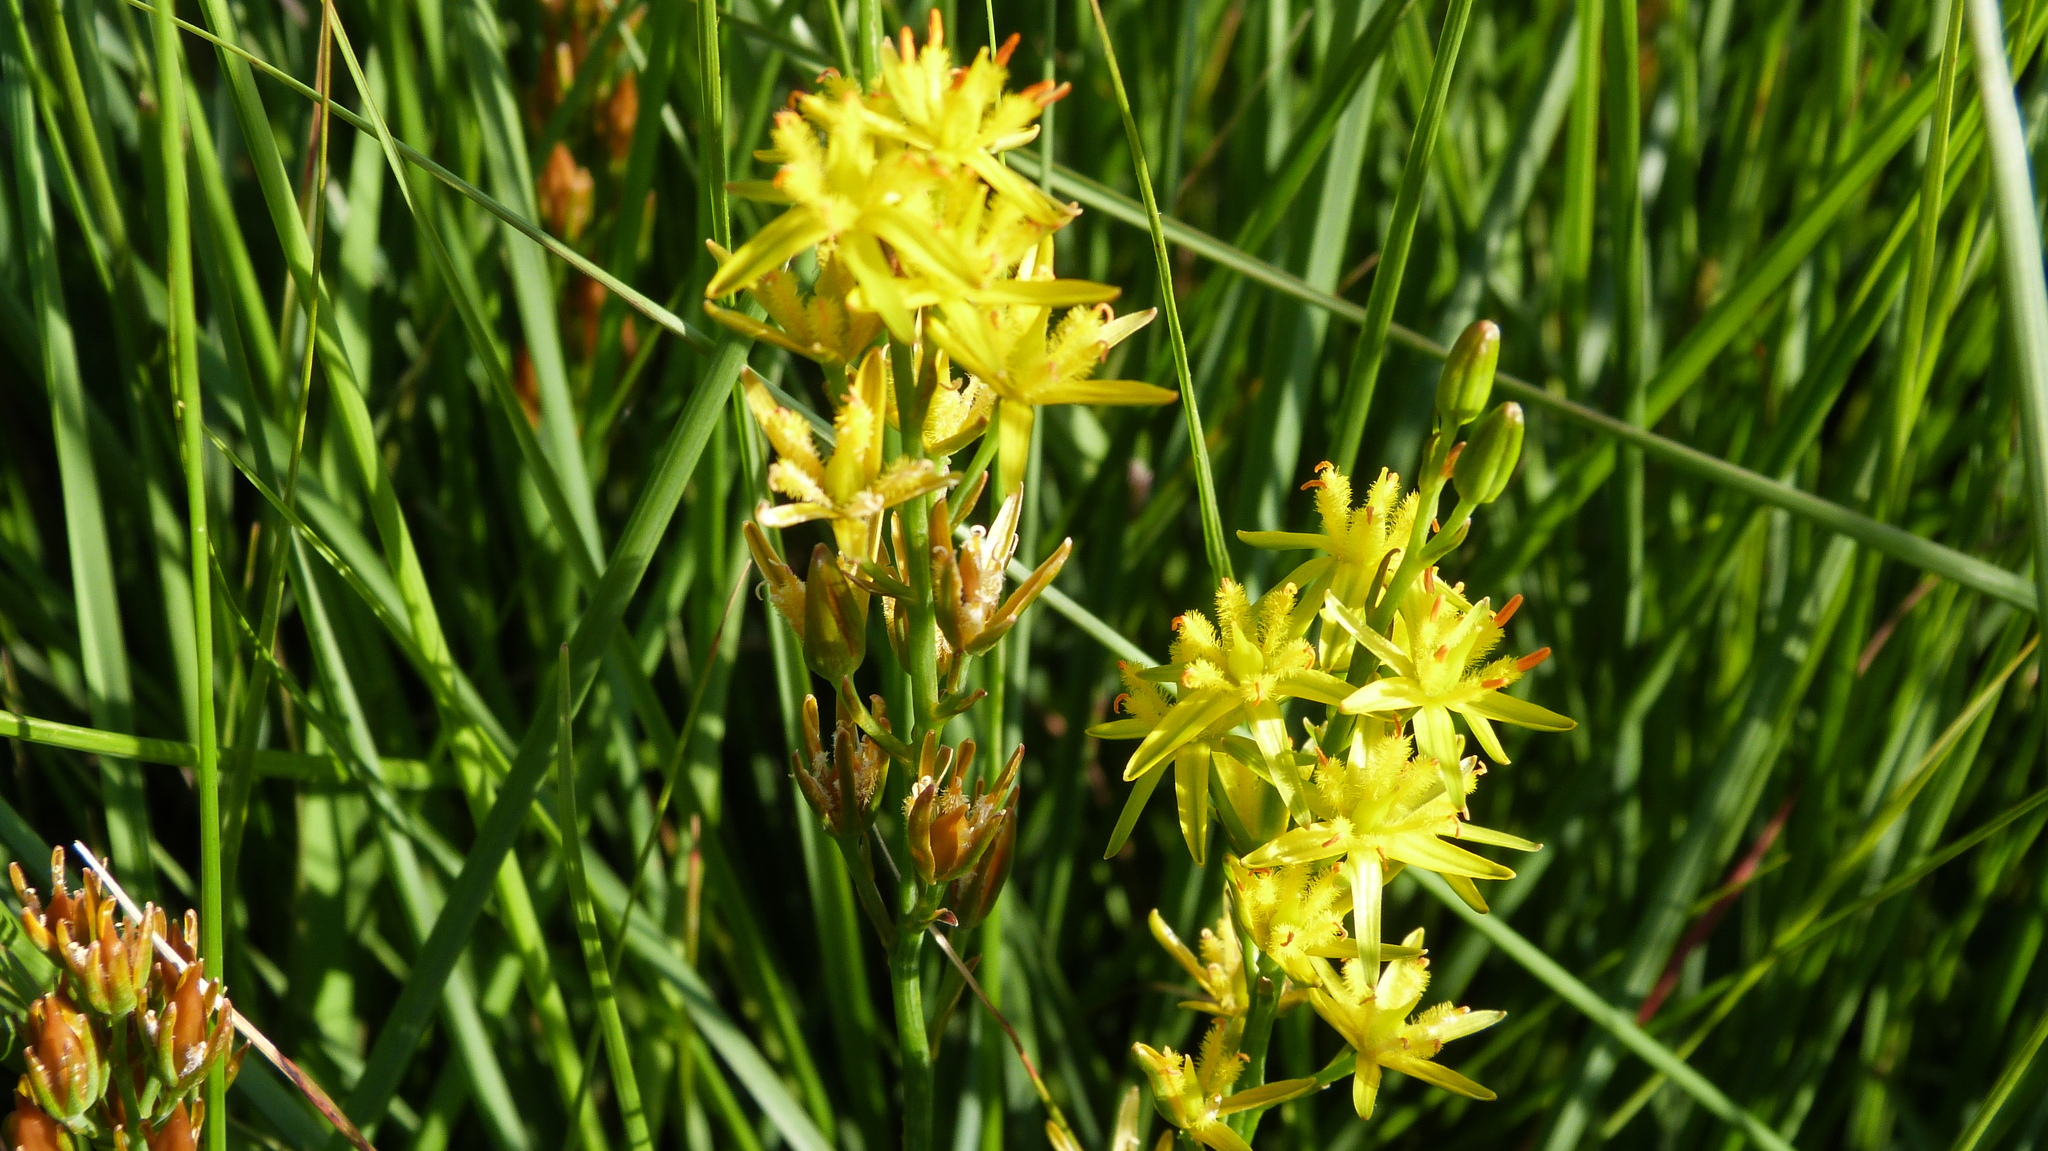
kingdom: Plantae
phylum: Tracheophyta
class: Liliopsida
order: Dioscoreales
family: Nartheciaceae
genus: Narthecium
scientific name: Narthecium ossifragum
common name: Bog asphodel
